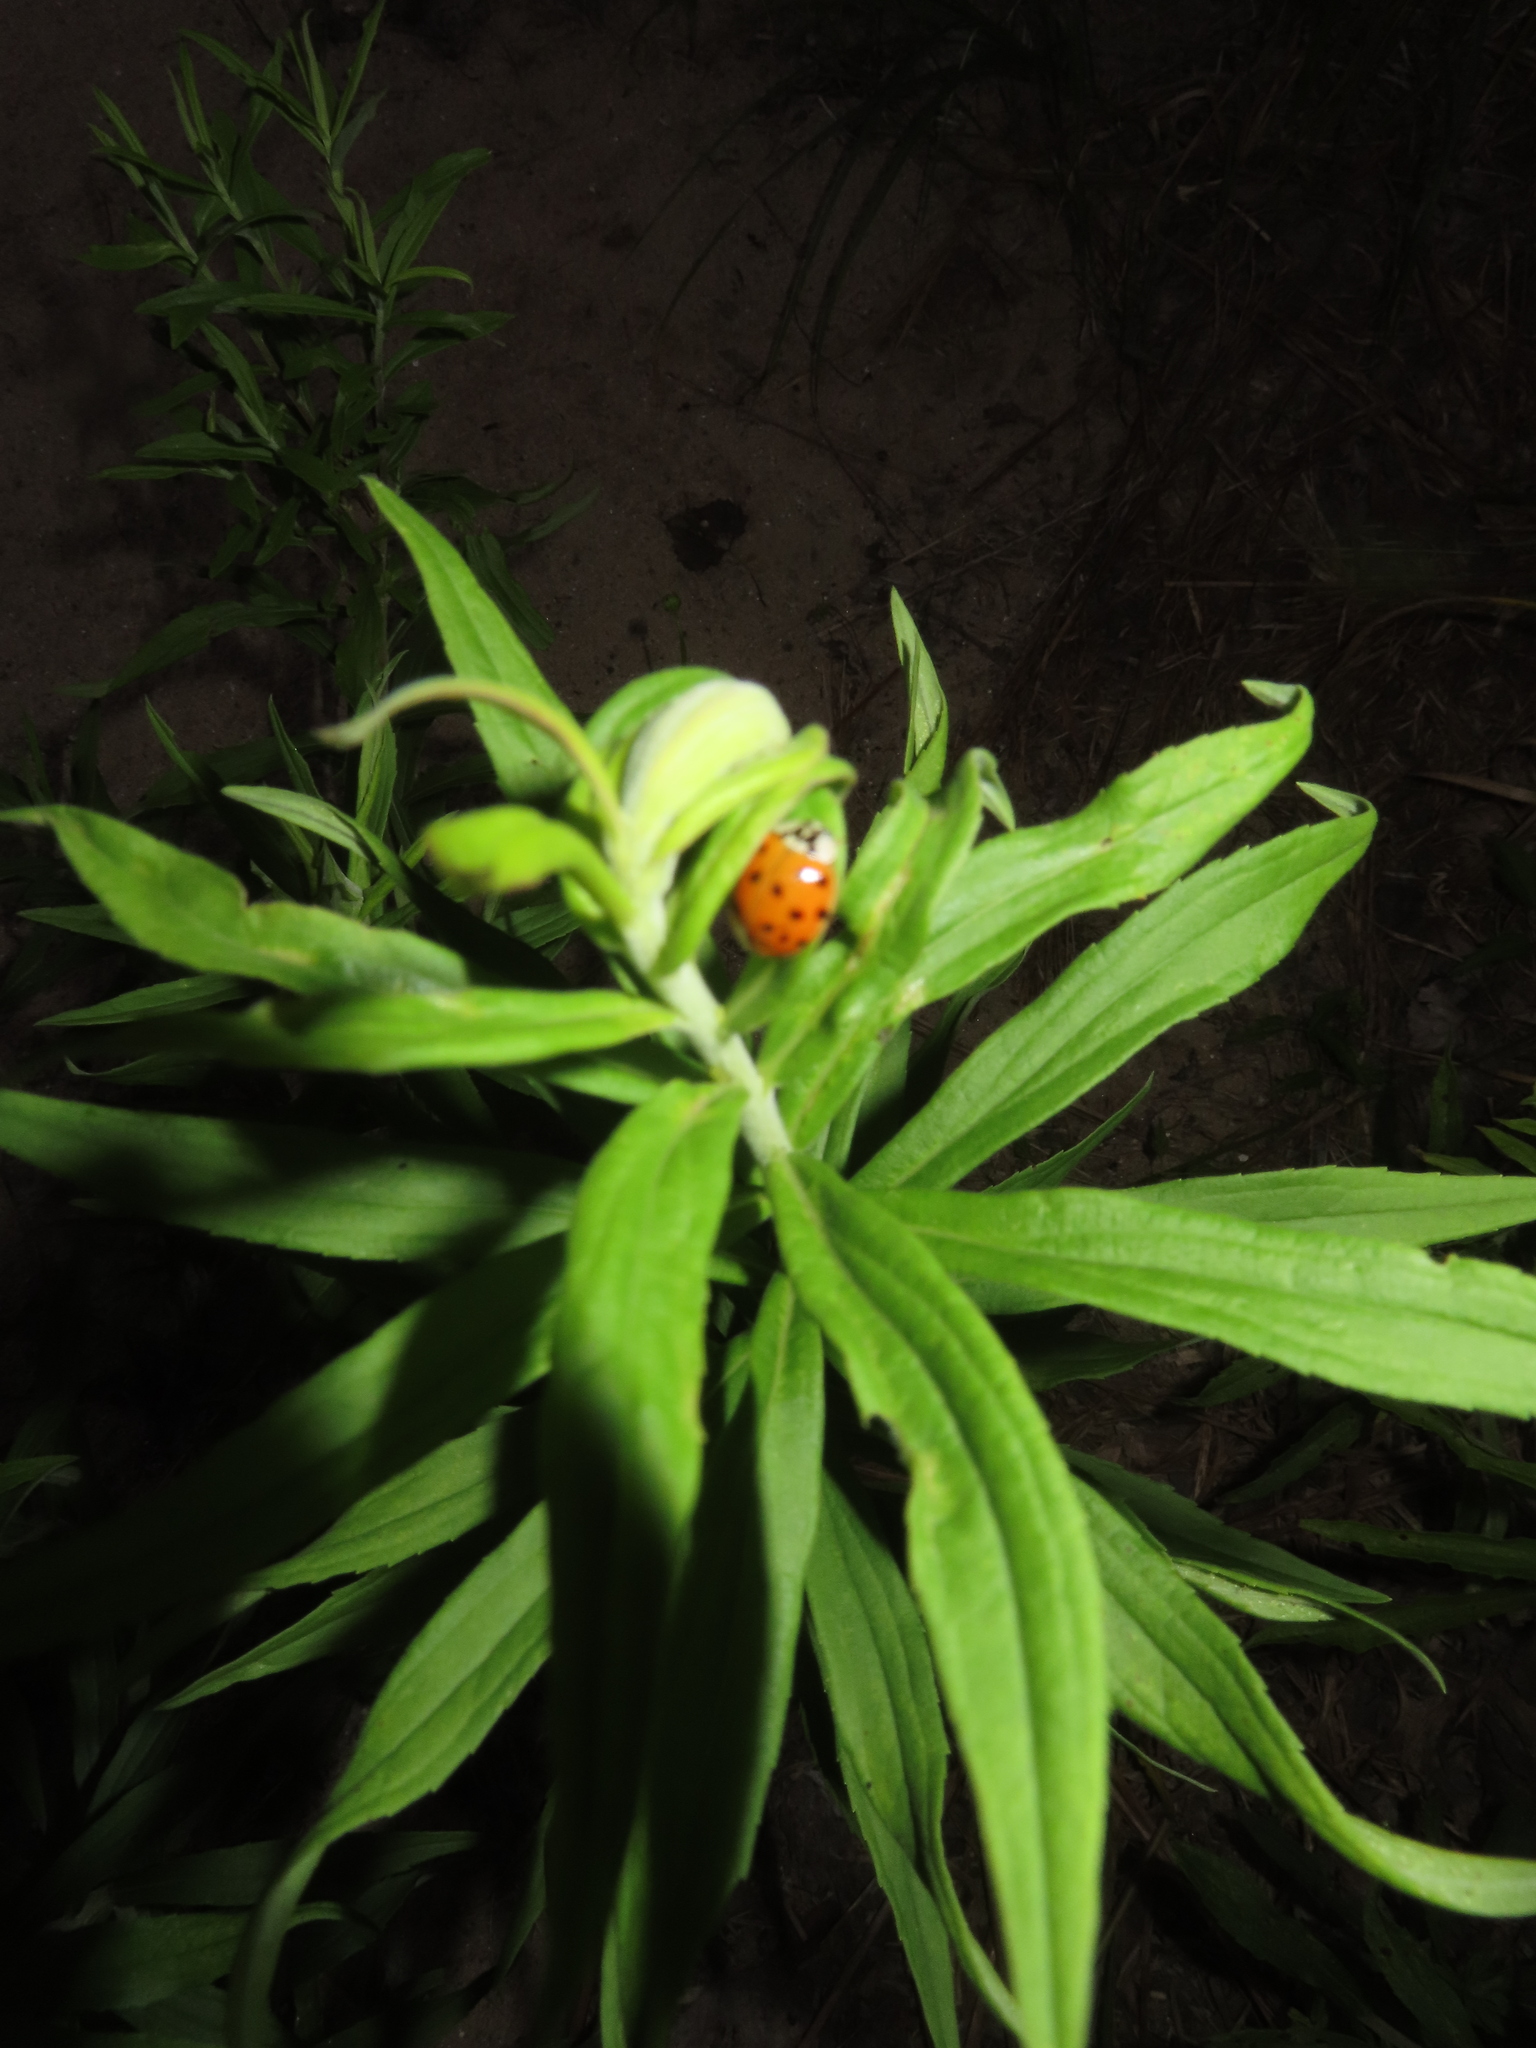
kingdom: Animalia
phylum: Arthropoda
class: Insecta
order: Coleoptera
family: Coccinellidae
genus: Harmonia
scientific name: Harmonia axyridis
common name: Harlequin ladybird
